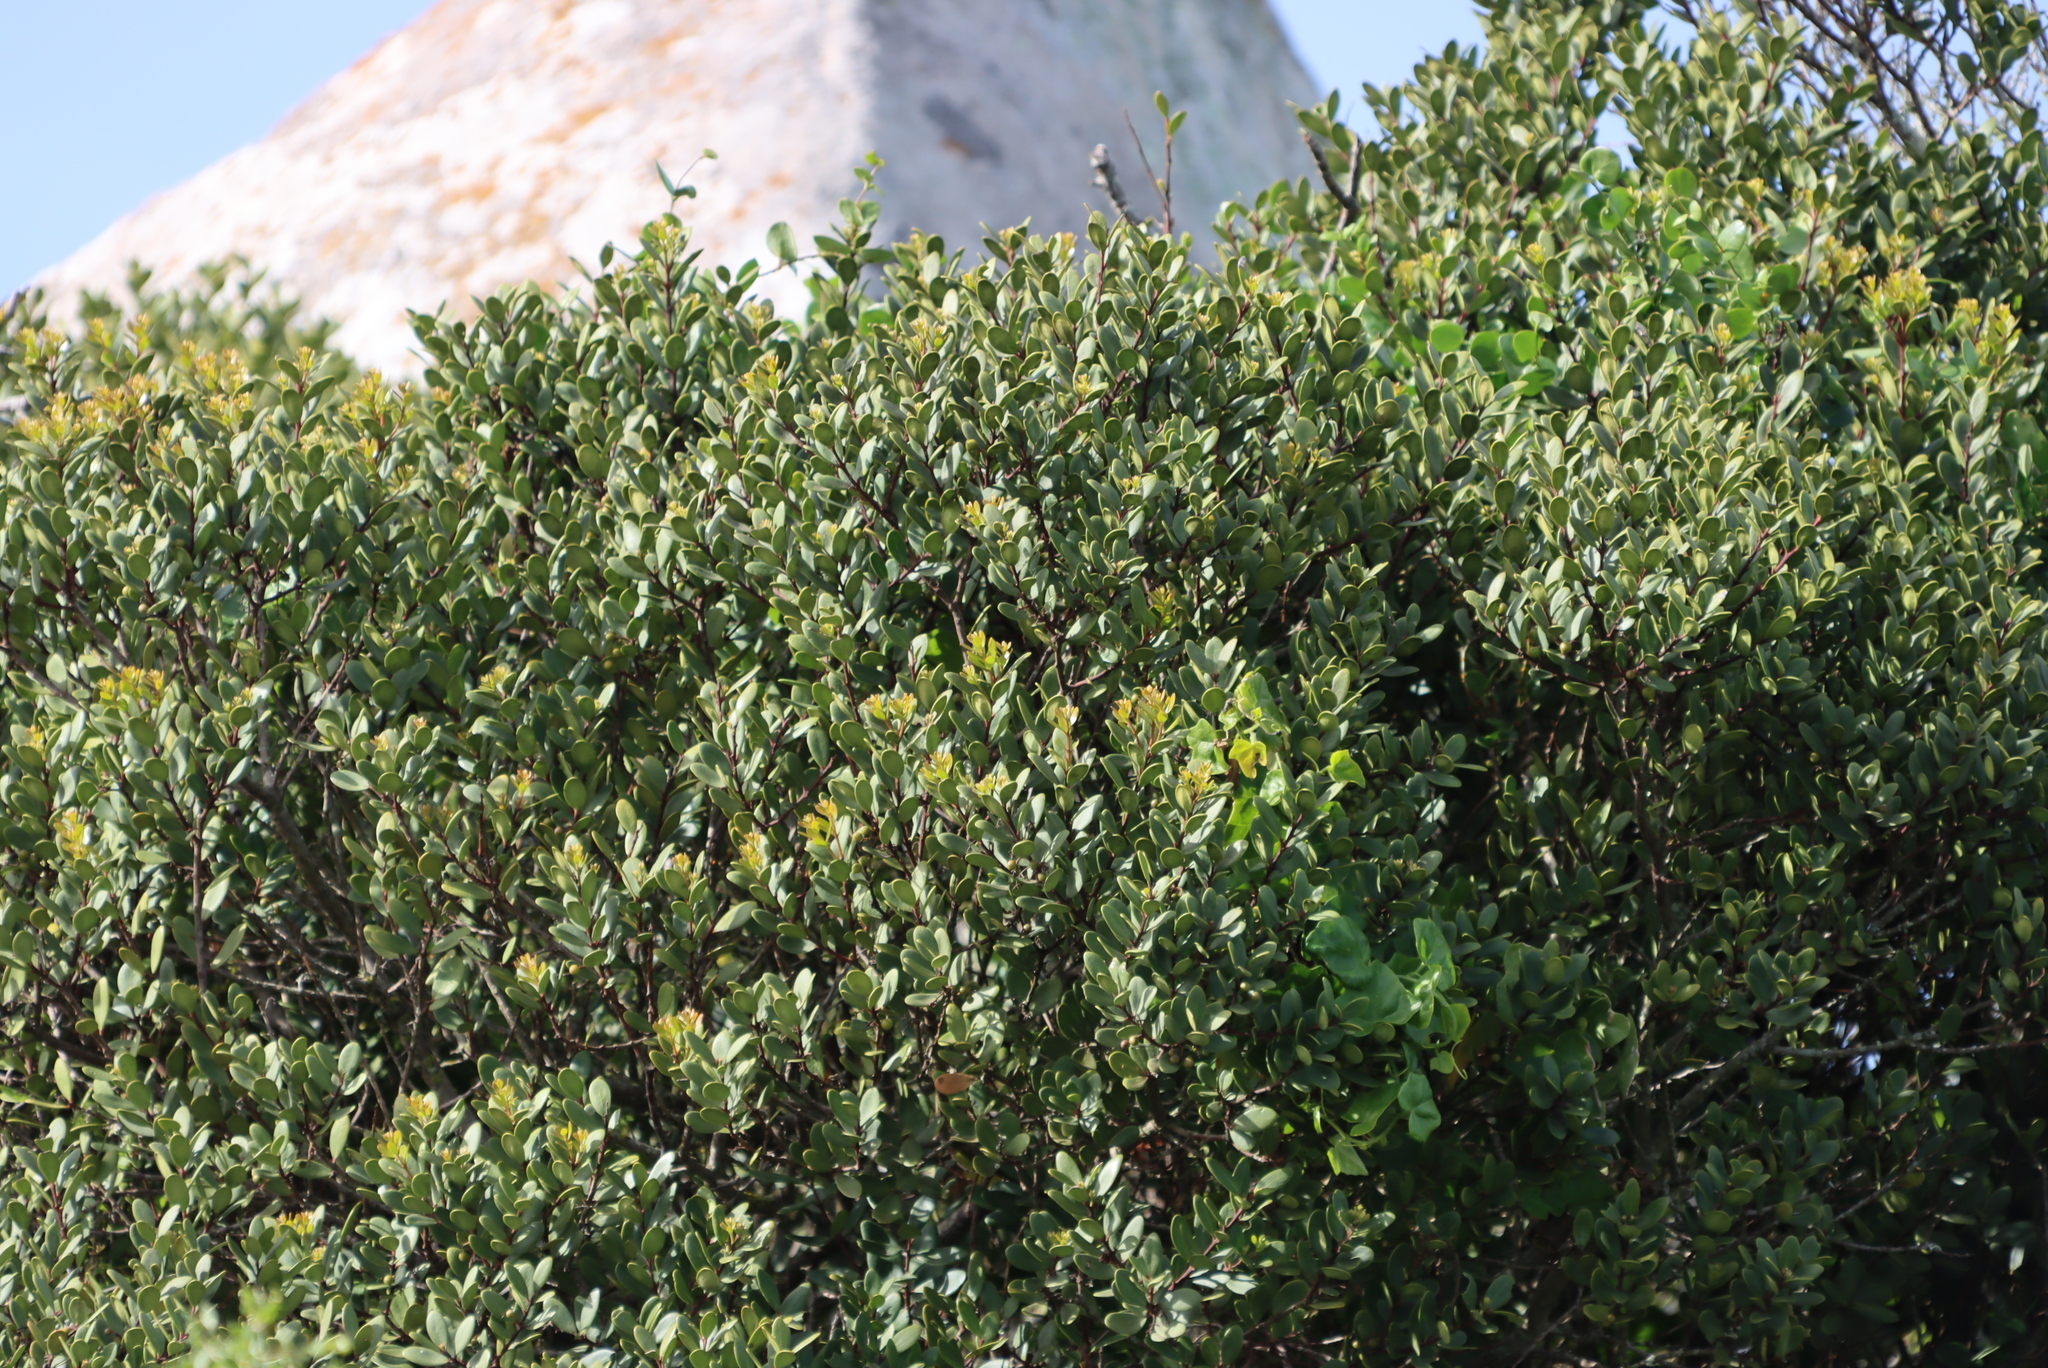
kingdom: Plantae
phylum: Tracheophyta
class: Magnoliopsida
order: Ericales
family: Ebenaceae
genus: Euclea
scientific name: Euclea racemosa
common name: Dune guarri
